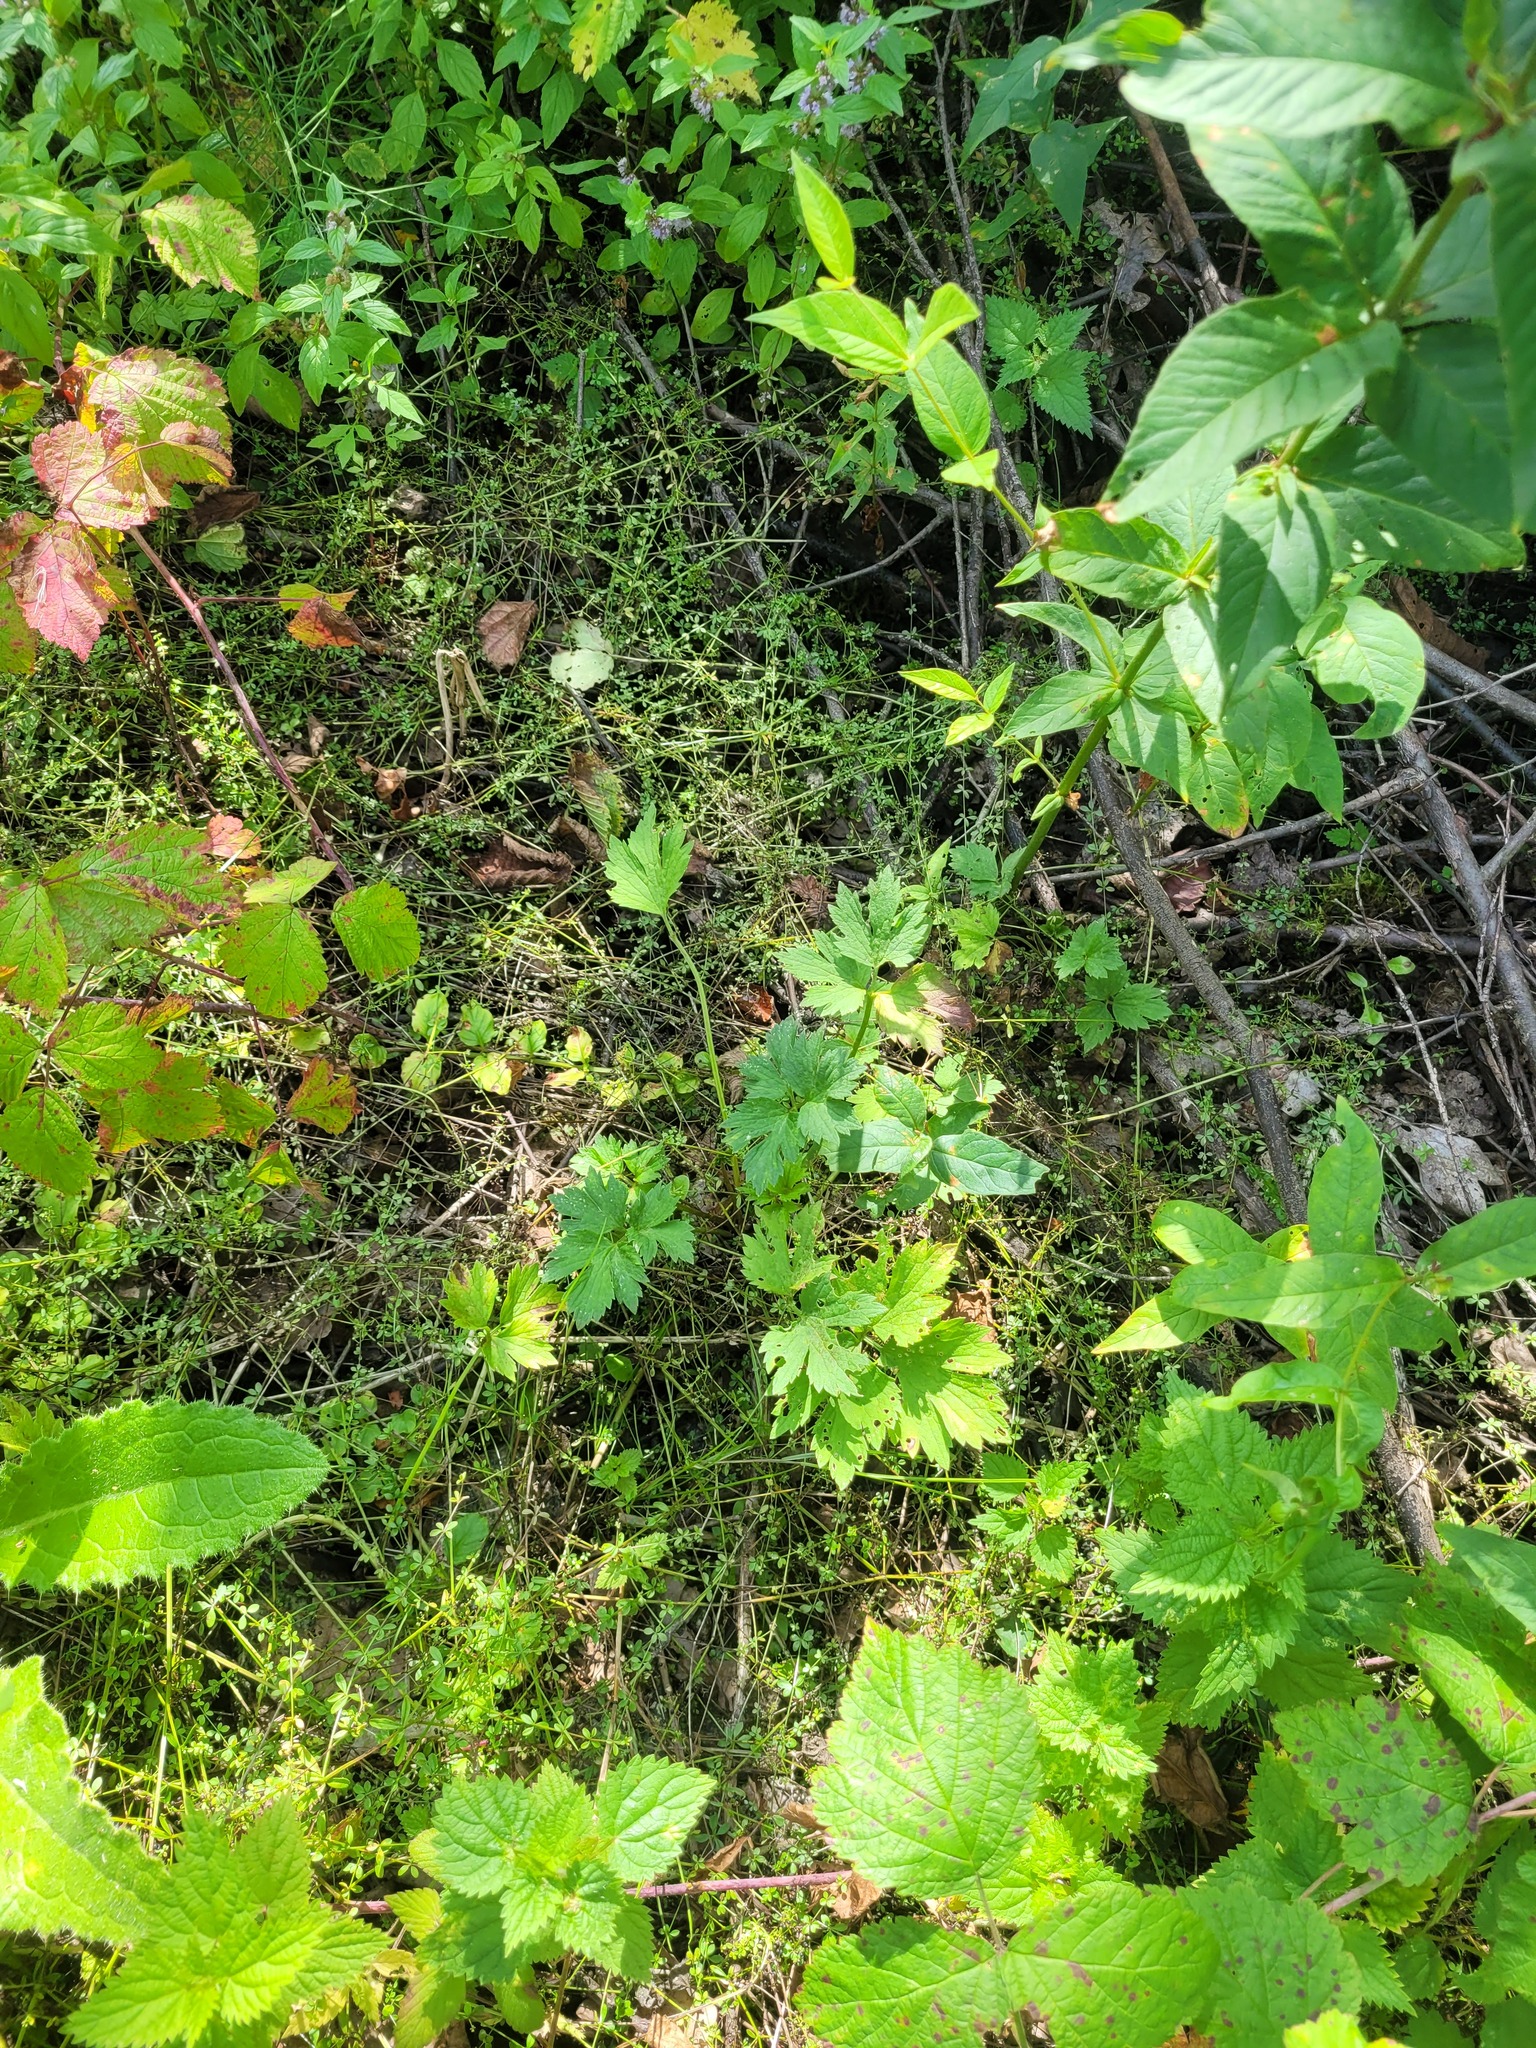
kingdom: Plantae
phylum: Tracheophyta
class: Magnoliopsida
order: Ranunculales
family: Ranunculaceae
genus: Ranunculus
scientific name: Ranunculus repens
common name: Creeping buttercup
